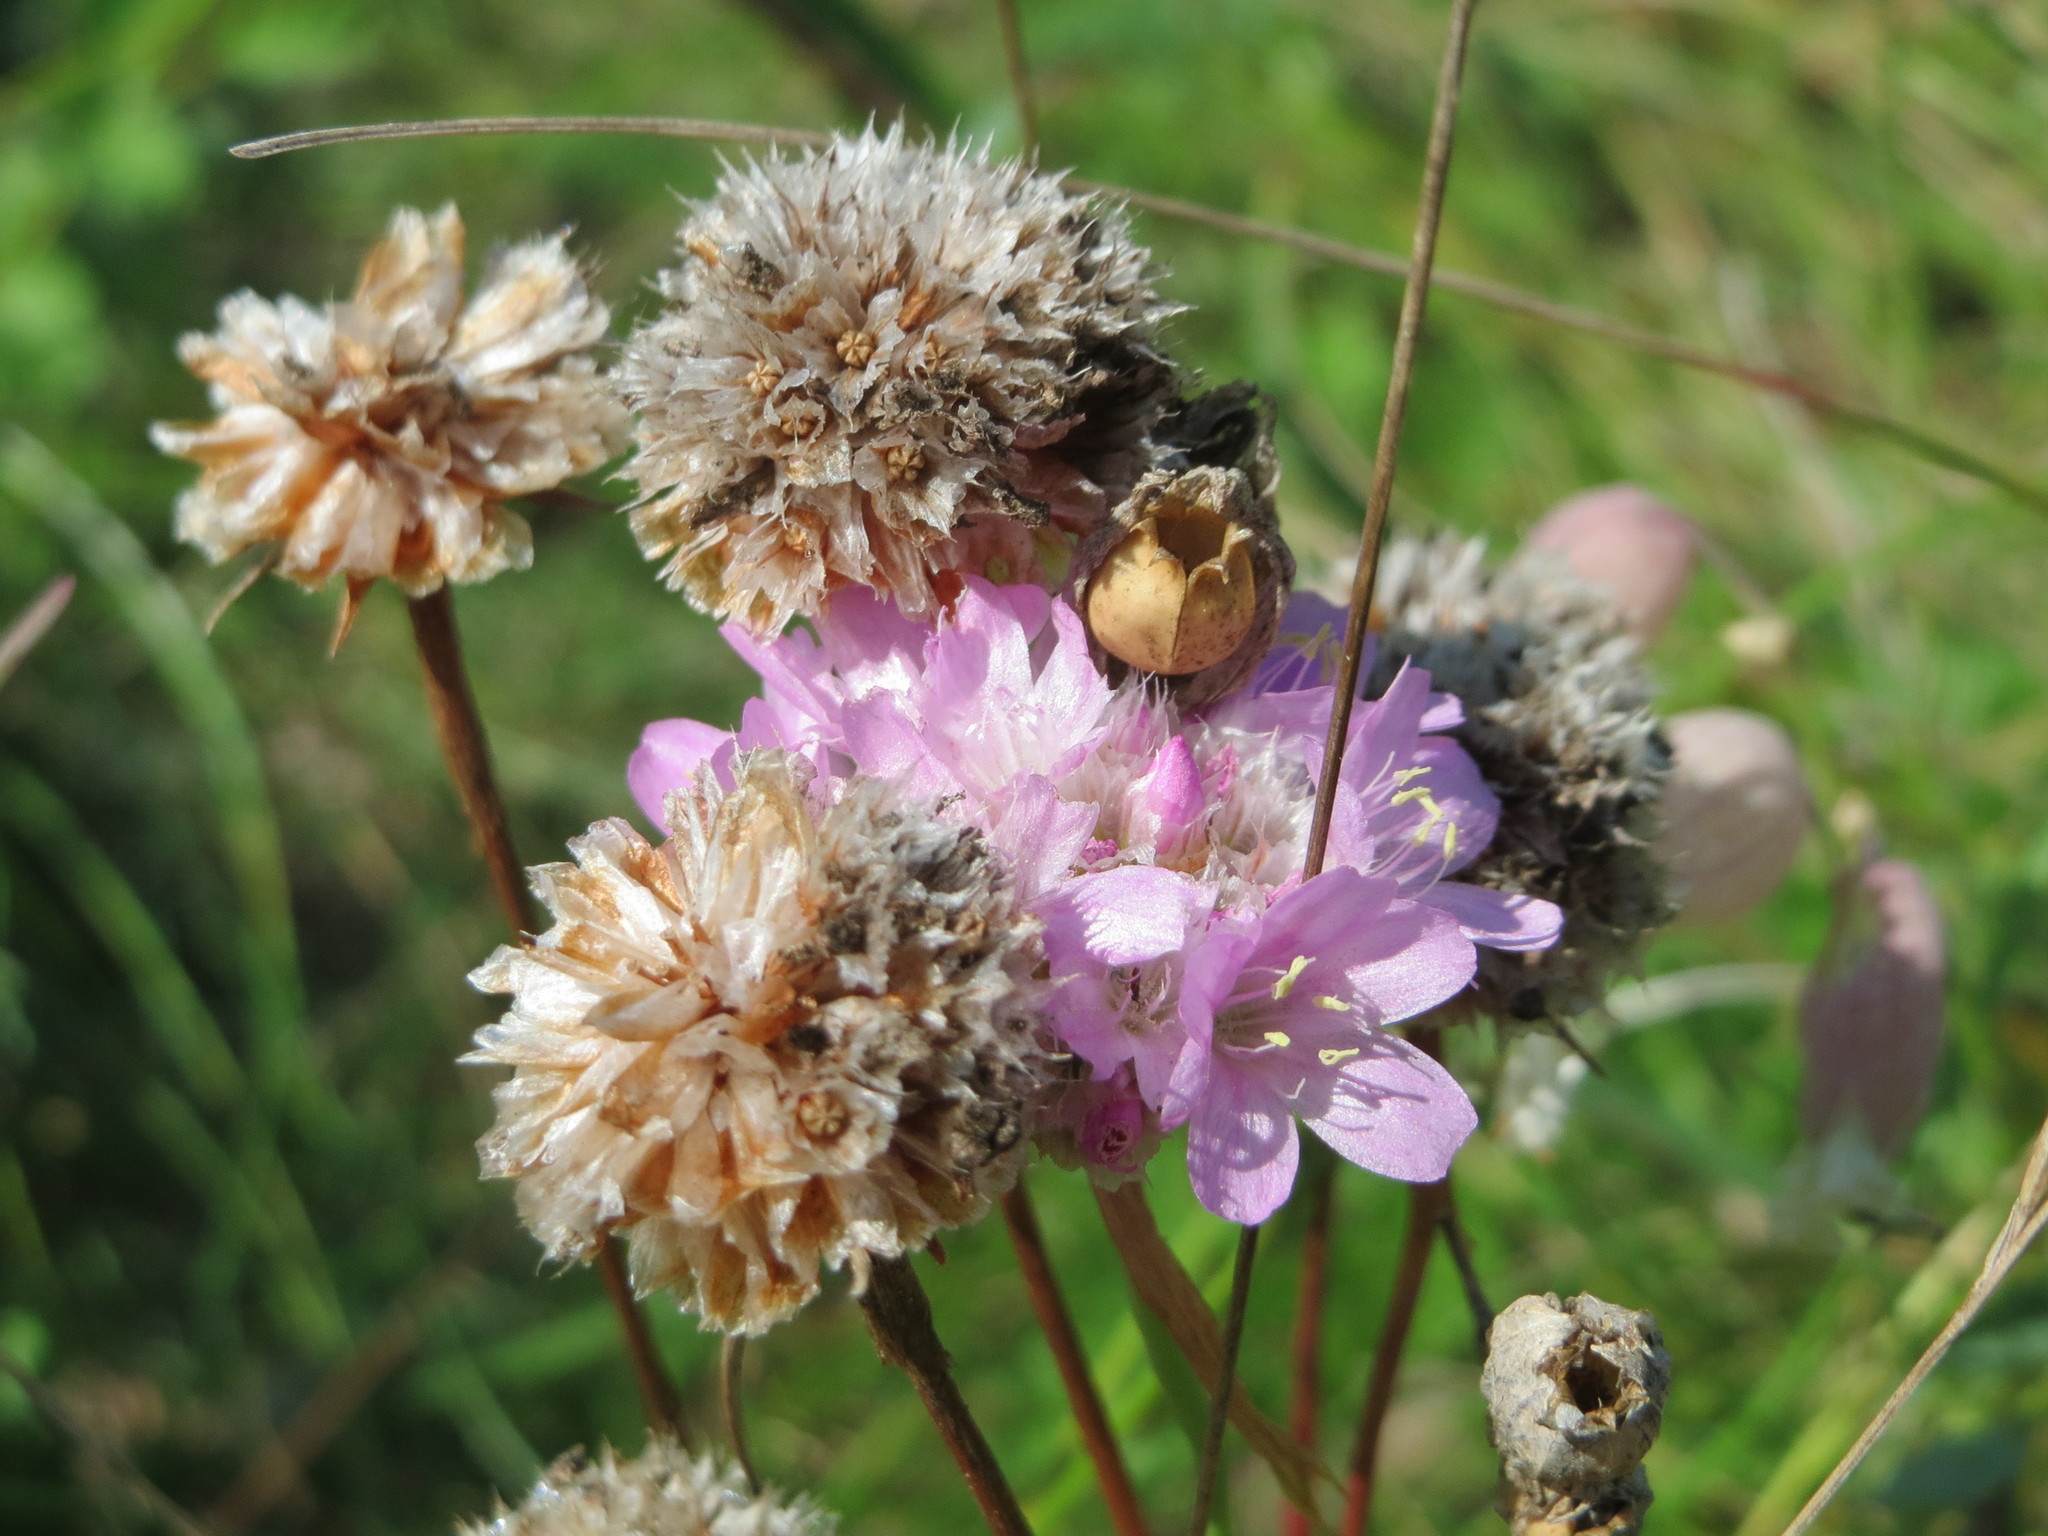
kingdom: Plantae
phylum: Tracheophyta
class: Magnoliopsida
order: Caryophyllales
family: Plumbaginaceae
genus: Armeria
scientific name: Armeria maritima
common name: Thrift
